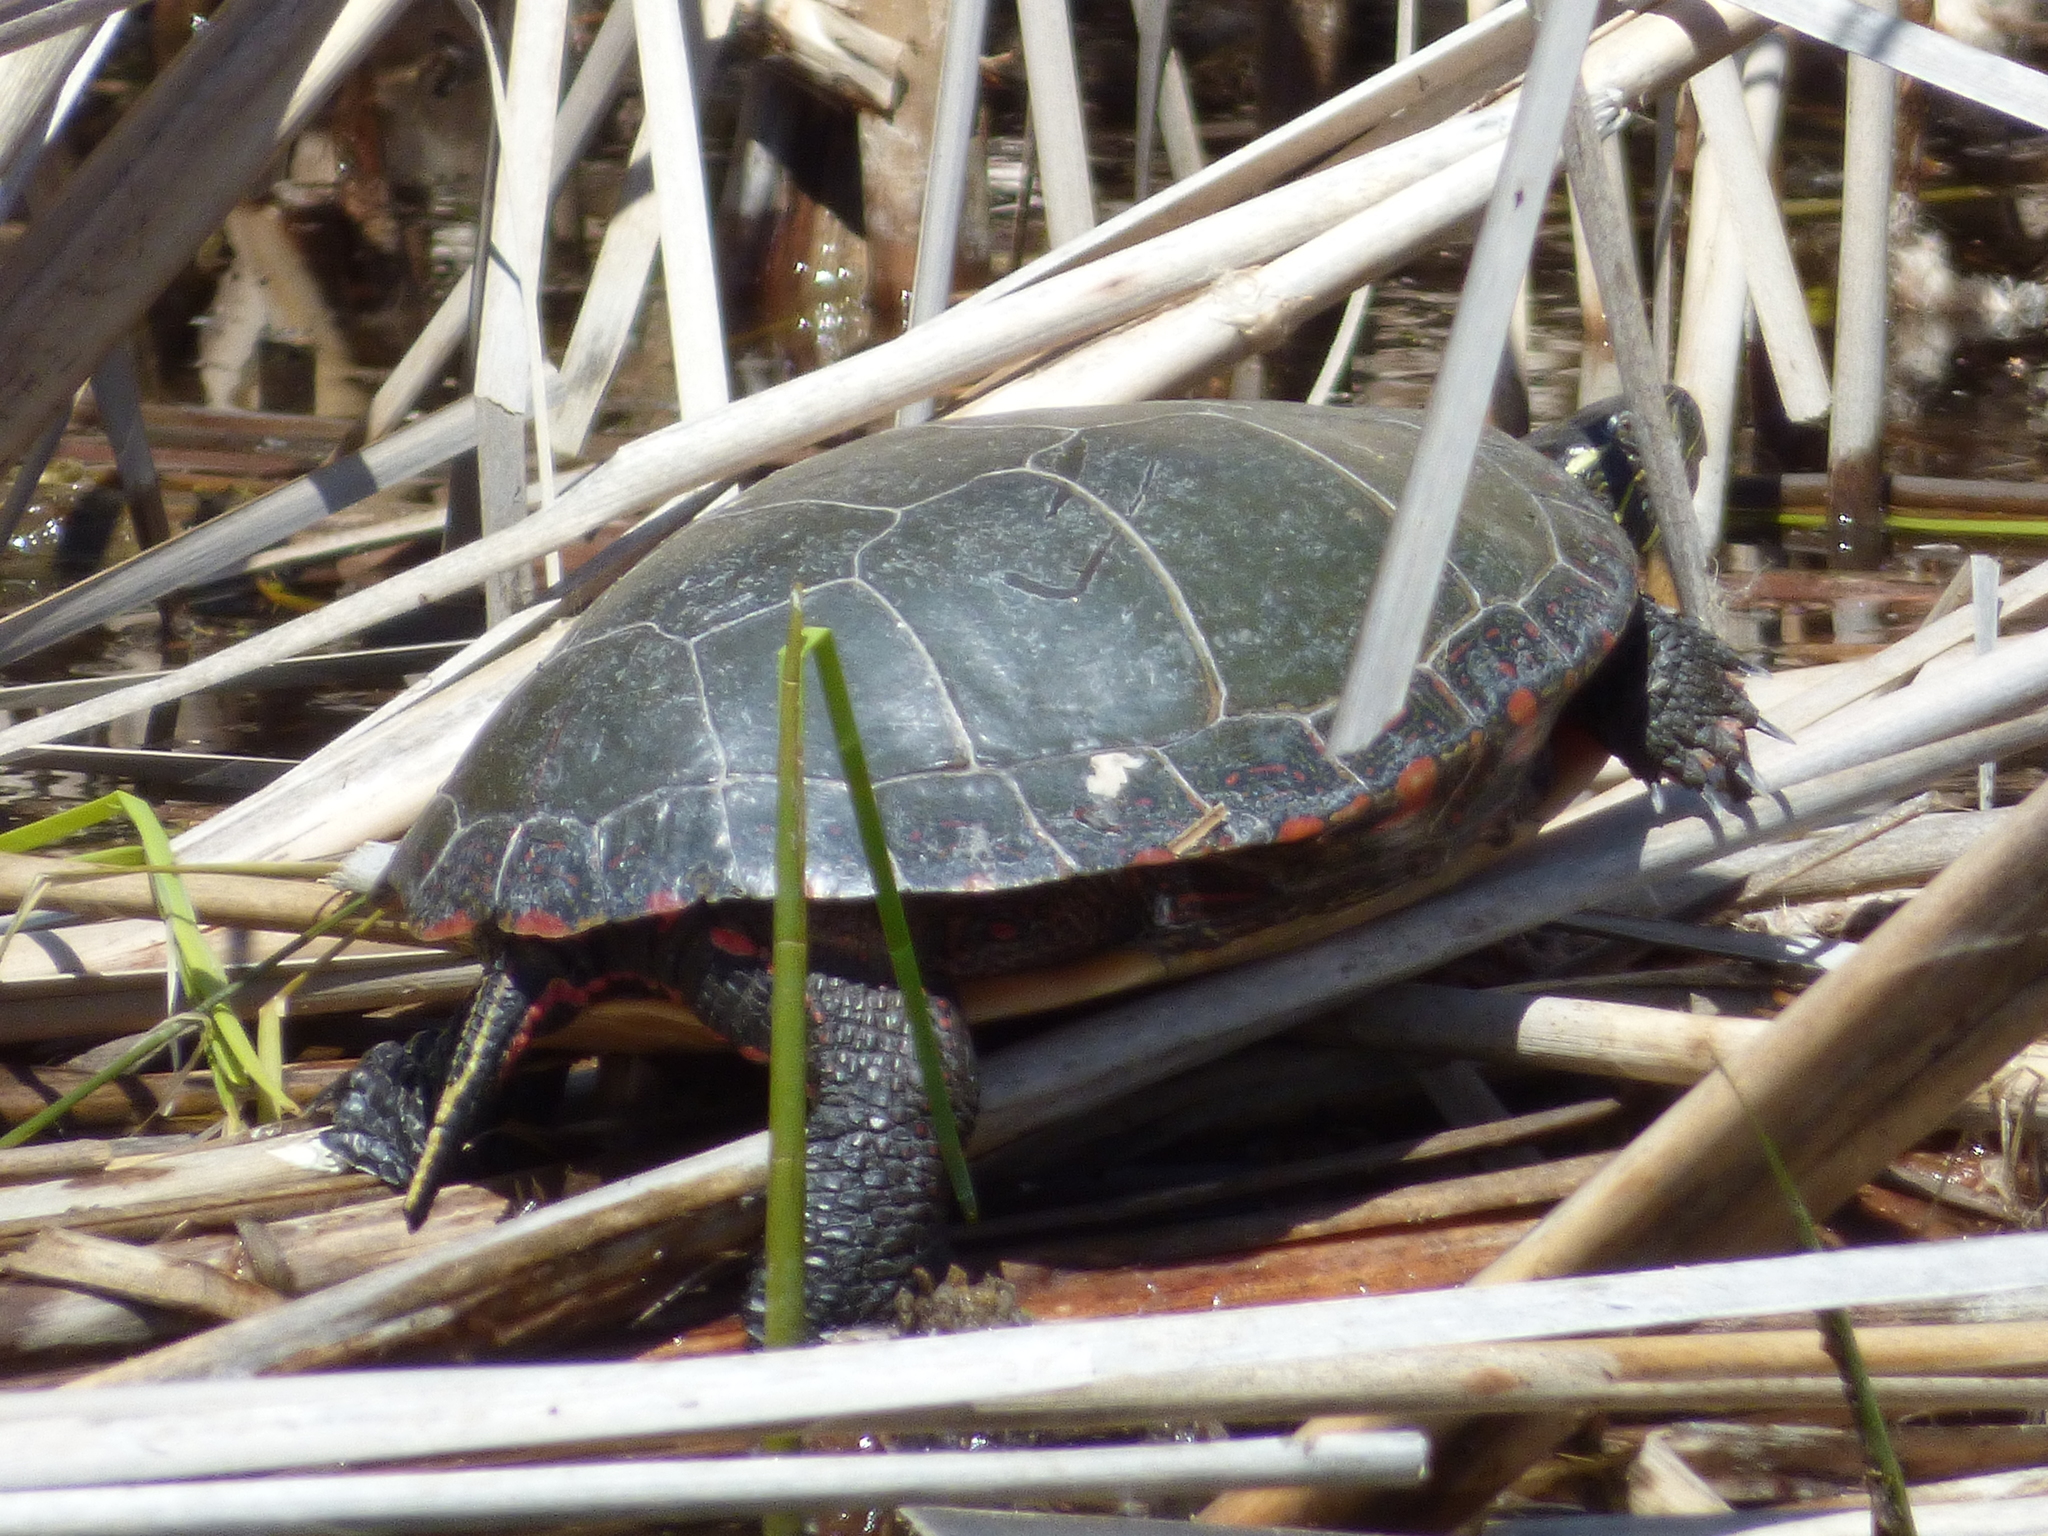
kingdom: Animalia
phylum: Chordata
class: Testudines
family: Emydidae
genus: Chrysemys
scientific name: Chrysemys picta
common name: Painted turtle
